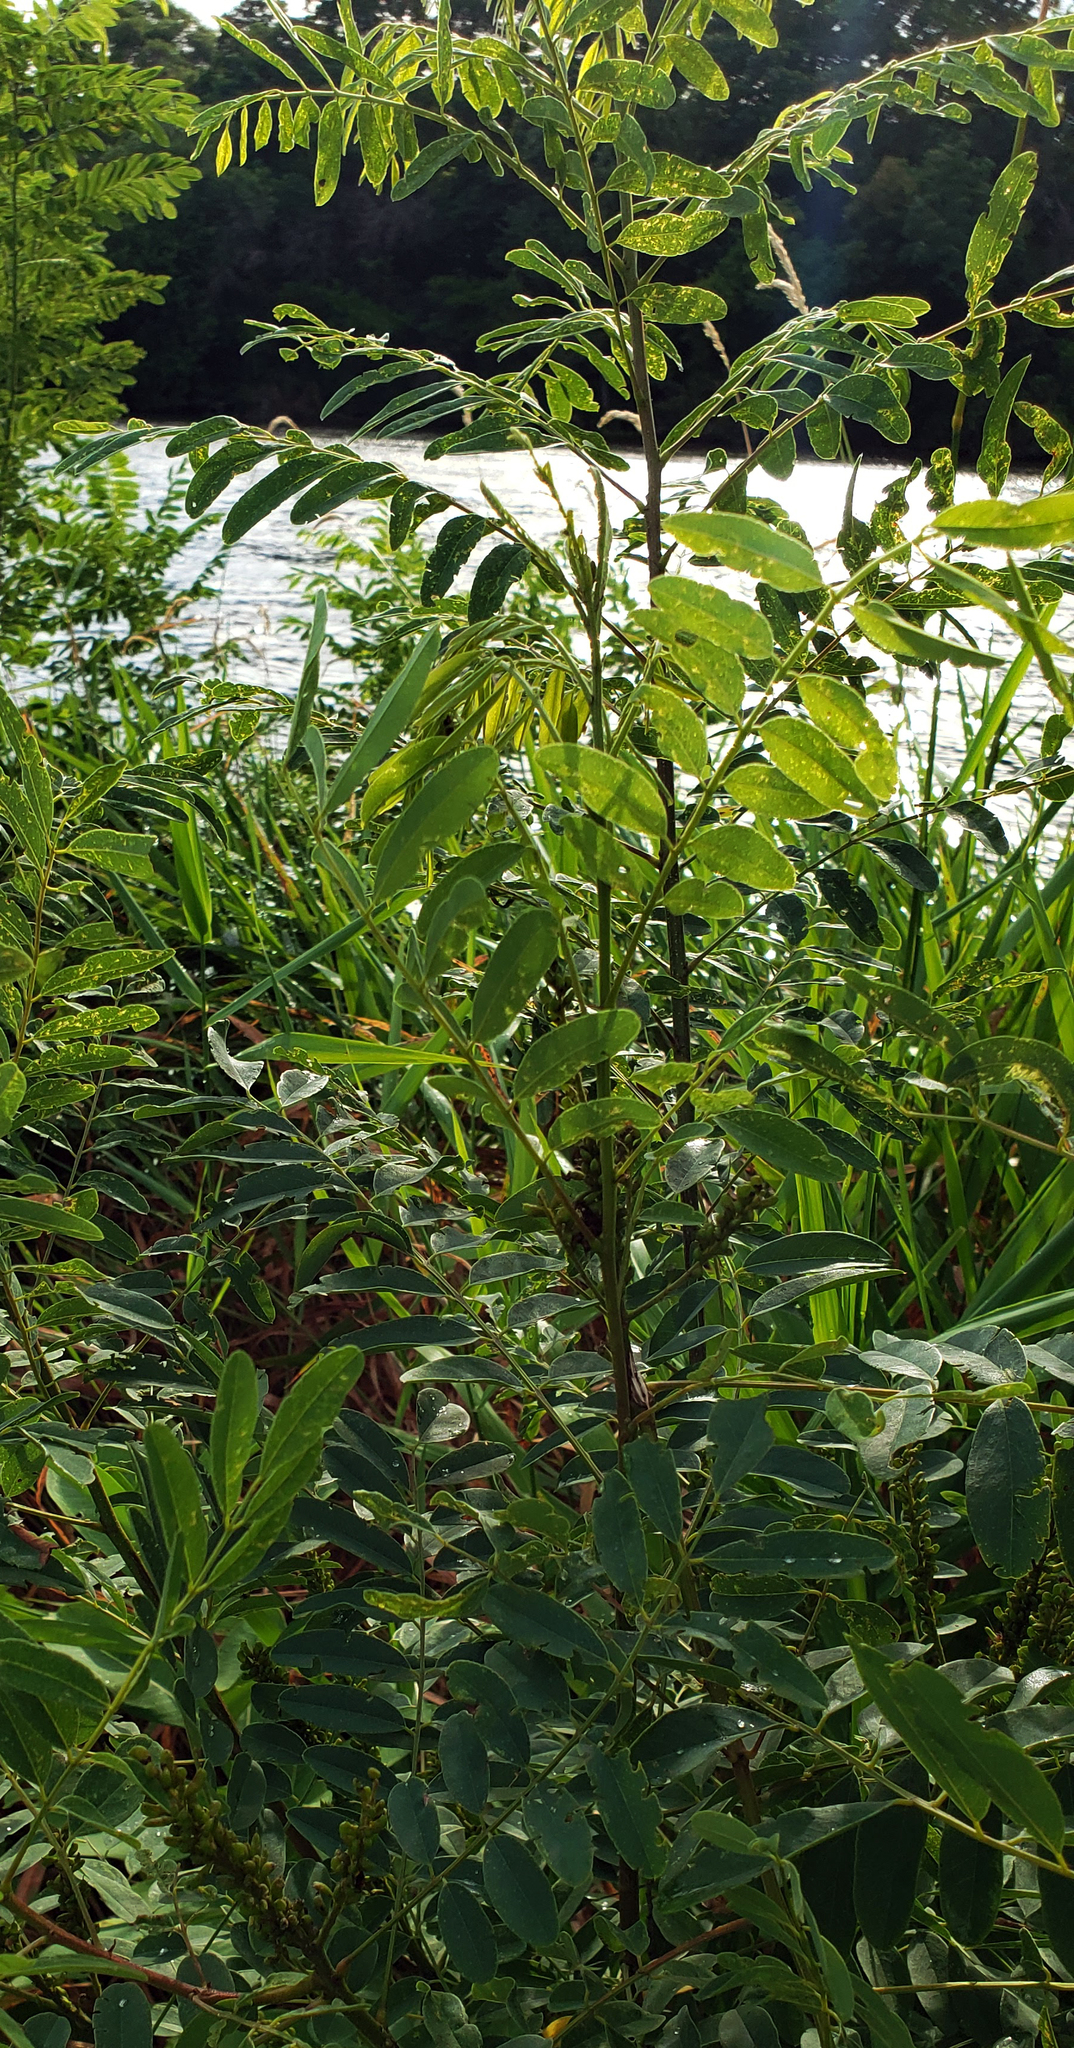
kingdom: Plantae
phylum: Tracheophyta
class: Magnoliopsida
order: Fabales
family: Fabaceae
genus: Amorpha
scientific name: Amorpha fruticosa
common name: False indigo
